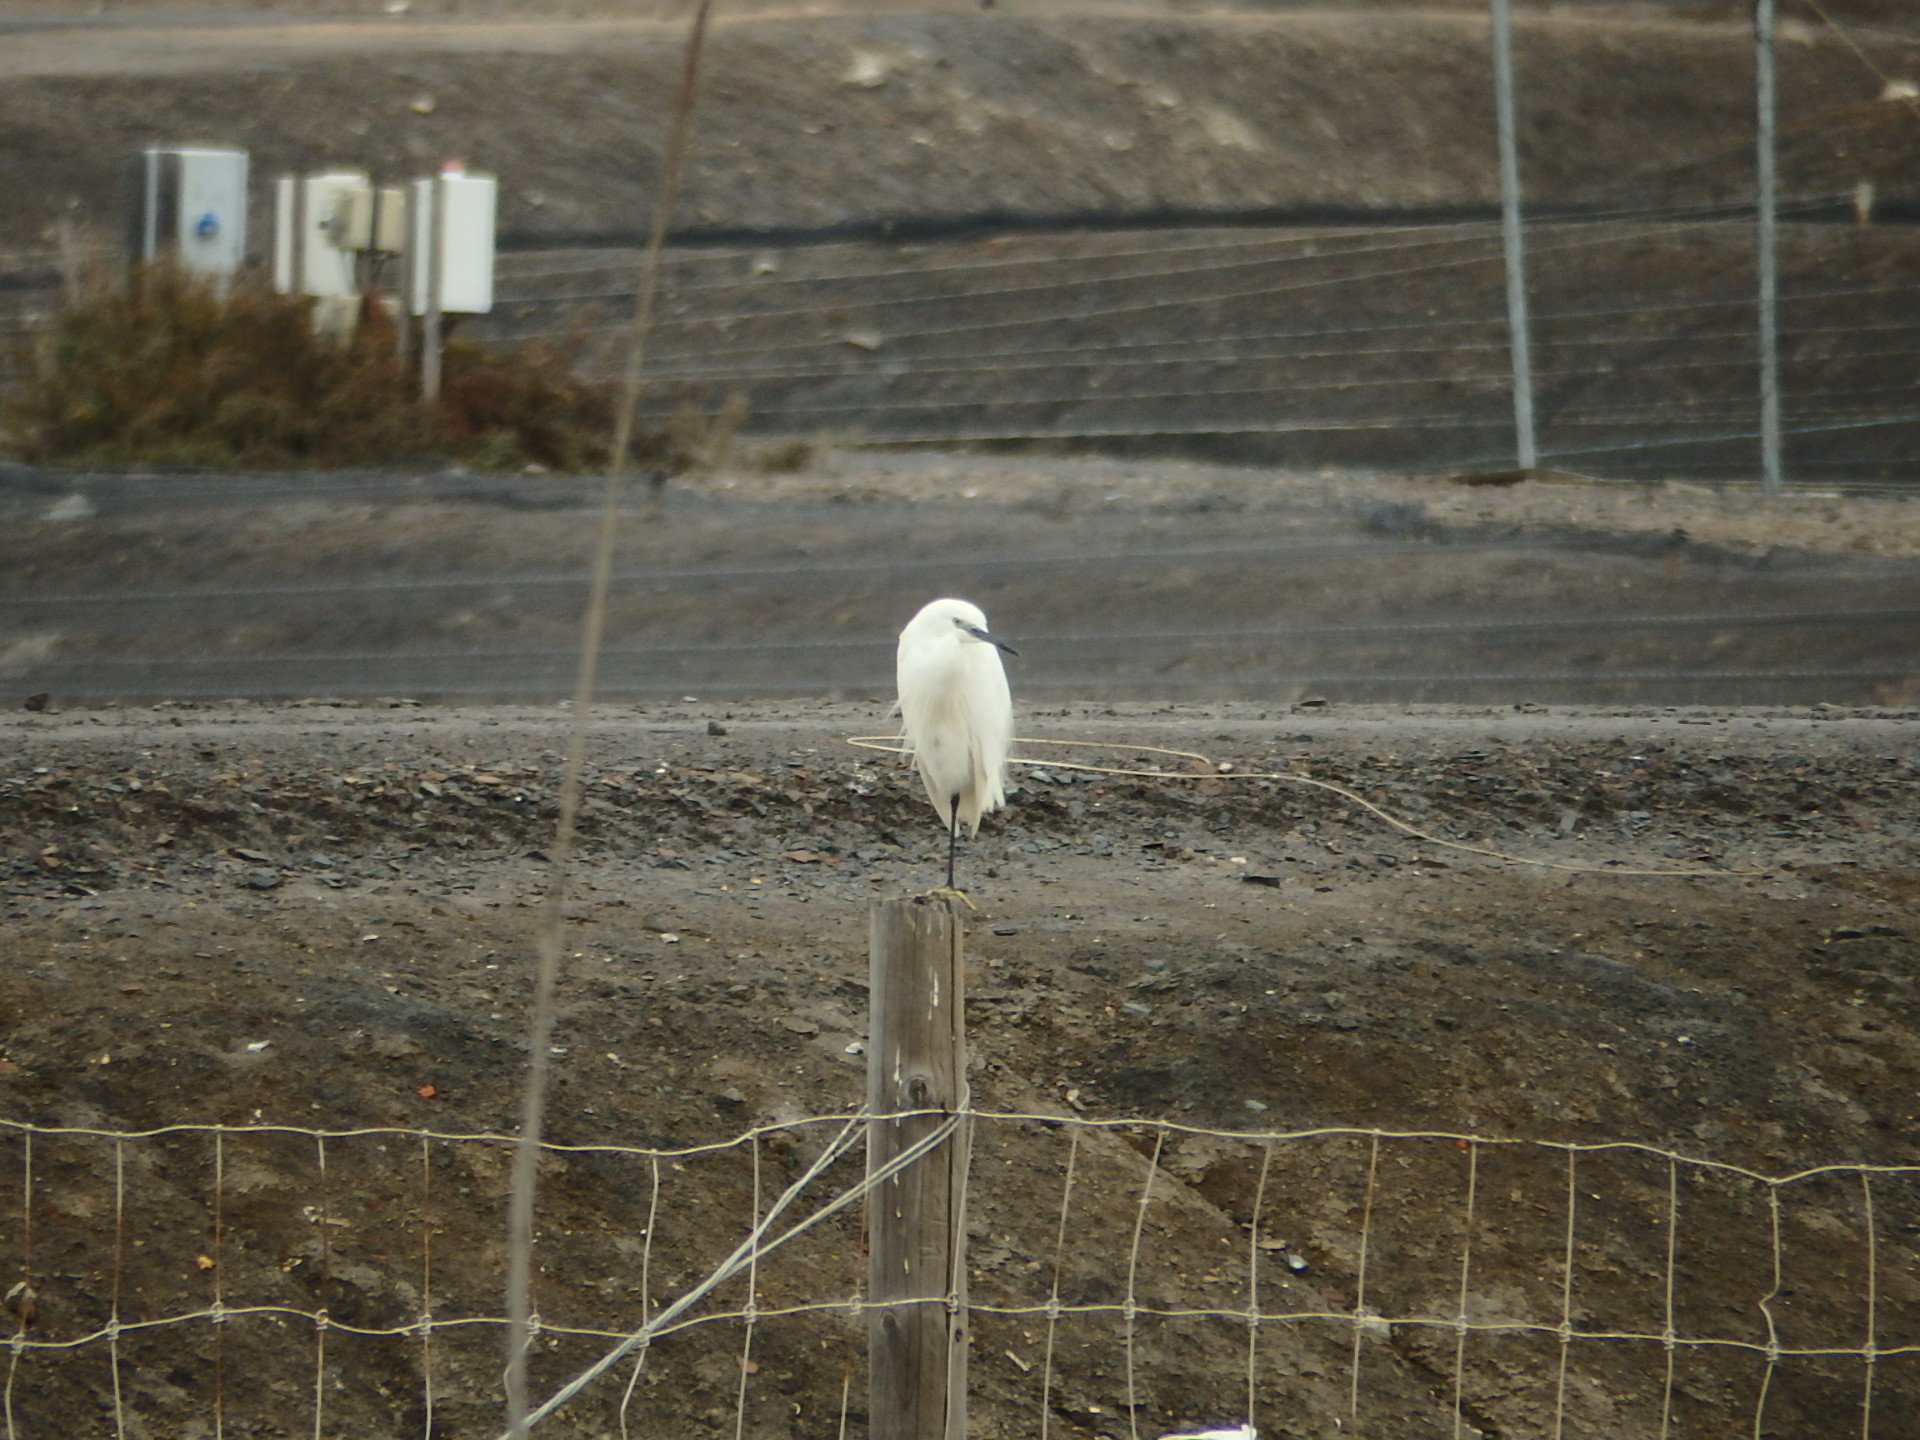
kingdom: Animalia
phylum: Chordata
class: Aves
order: Pelecaniformes
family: Ardeidae
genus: Egretta
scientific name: Egretta garzetta
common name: Little egret
